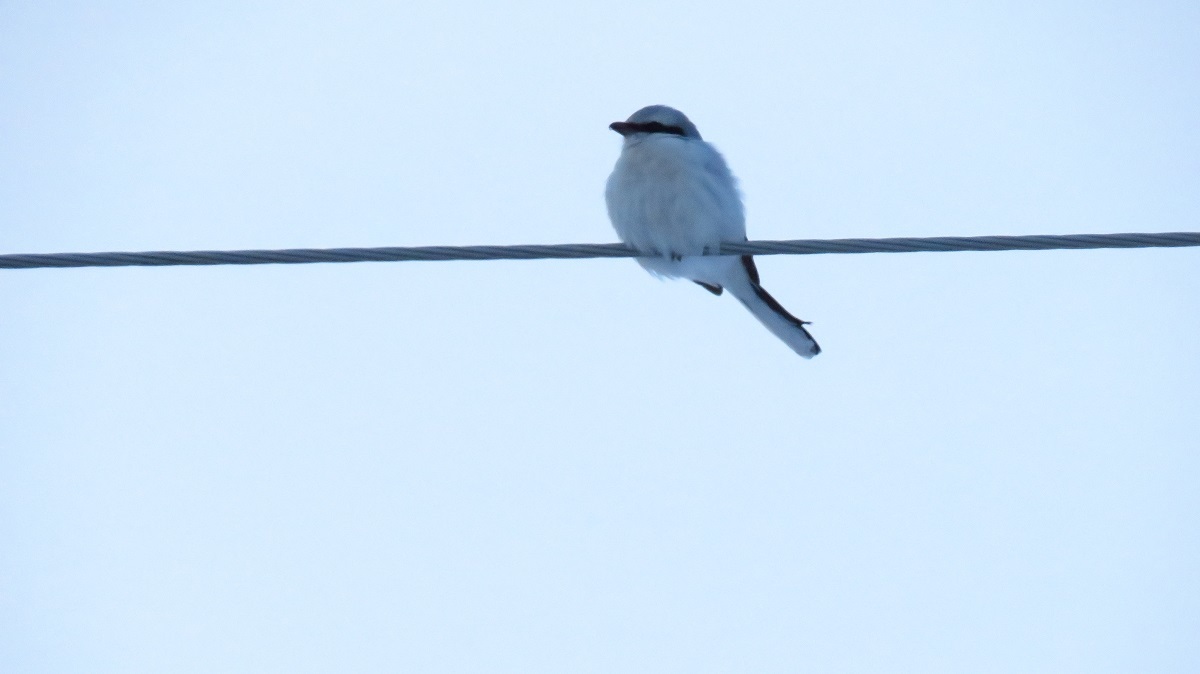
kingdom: Animalia
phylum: Chordata
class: Aves
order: Passeriformes
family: Laniidae
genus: Lanius
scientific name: Lanius excubitor
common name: Great grey shrike
